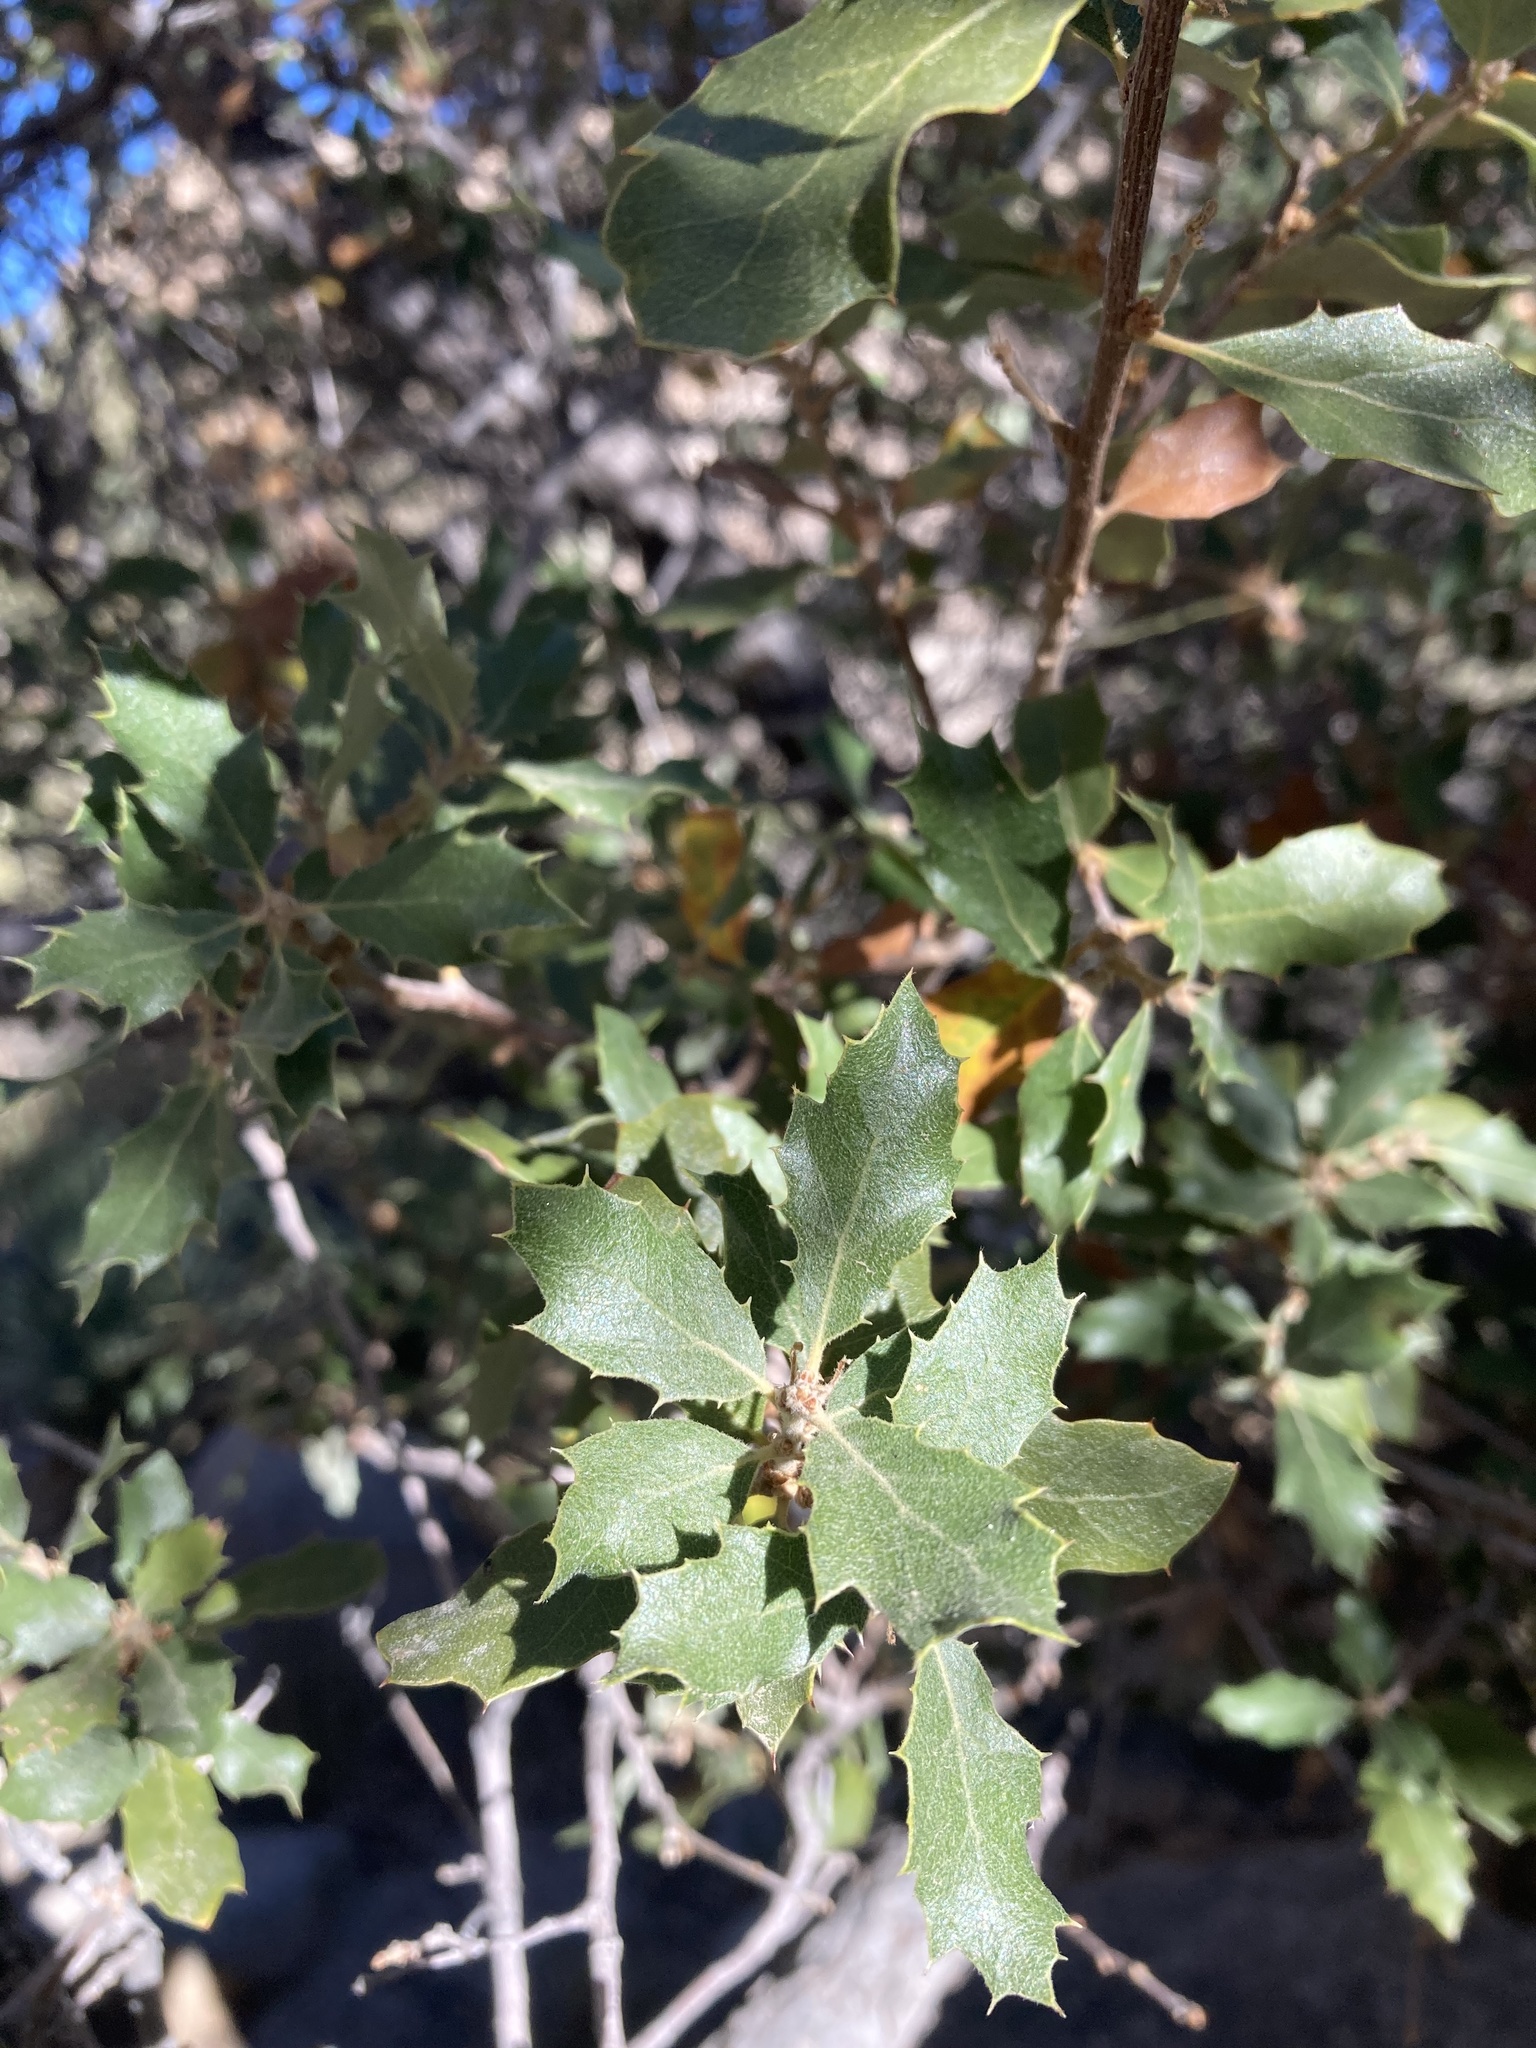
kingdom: Plantae
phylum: Tracheophyta
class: Magnoliopsida
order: Fagales
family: Fagaceae
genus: Quercus
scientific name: Quercus cornelius-mulleri
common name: Muller oak
